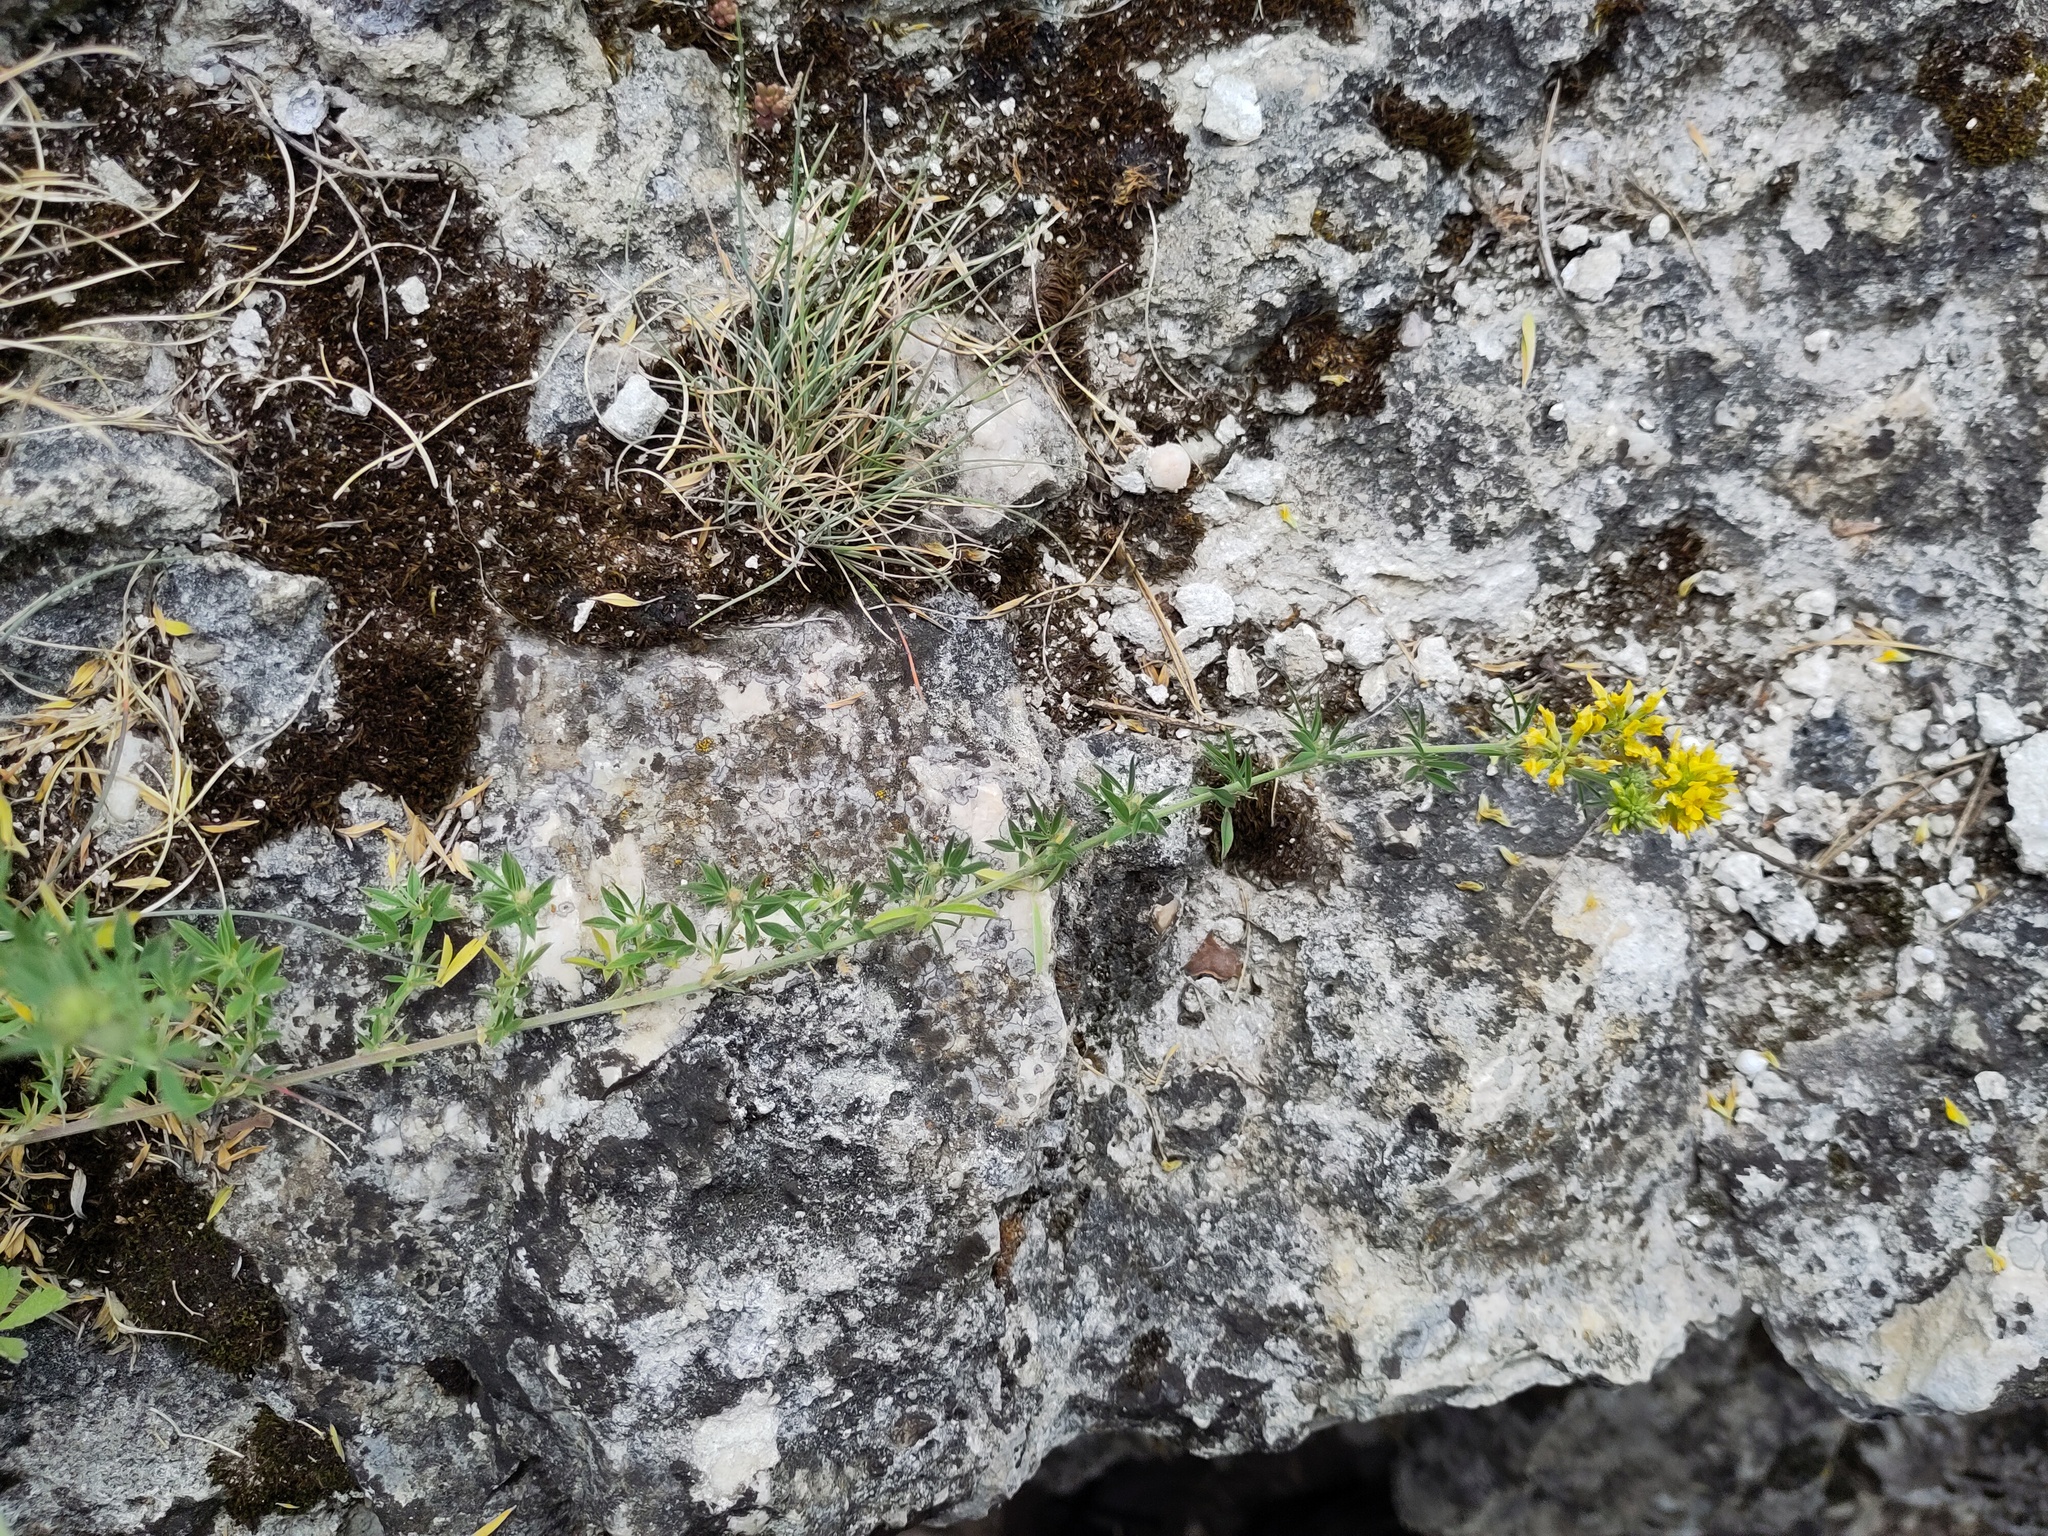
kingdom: Plantae
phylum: Tracheophyta
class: Magnoliopsida
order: Fabales
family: Fabaceae
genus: Medicago
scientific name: Medicago falcata
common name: Sickle medick
